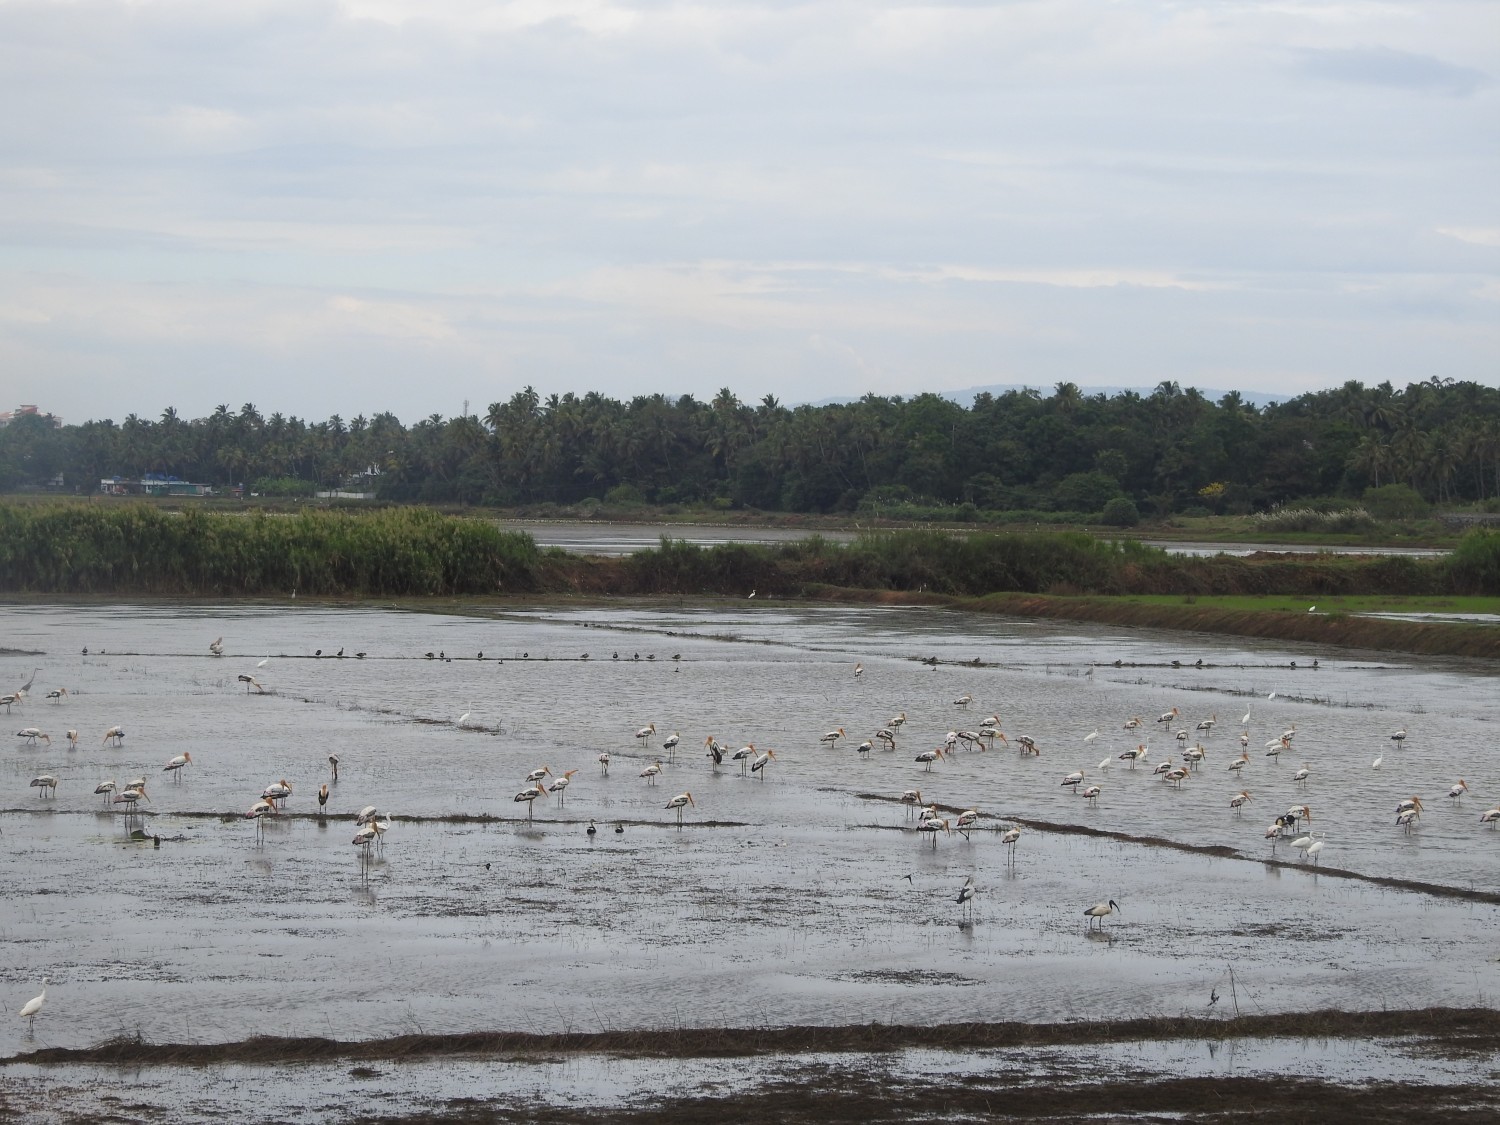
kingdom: Animalia
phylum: Chordata
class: Aves
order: Ciconiiformes
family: Ciconiidae
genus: Mycteria
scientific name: Mycteria leucocephala
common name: Painted stork
